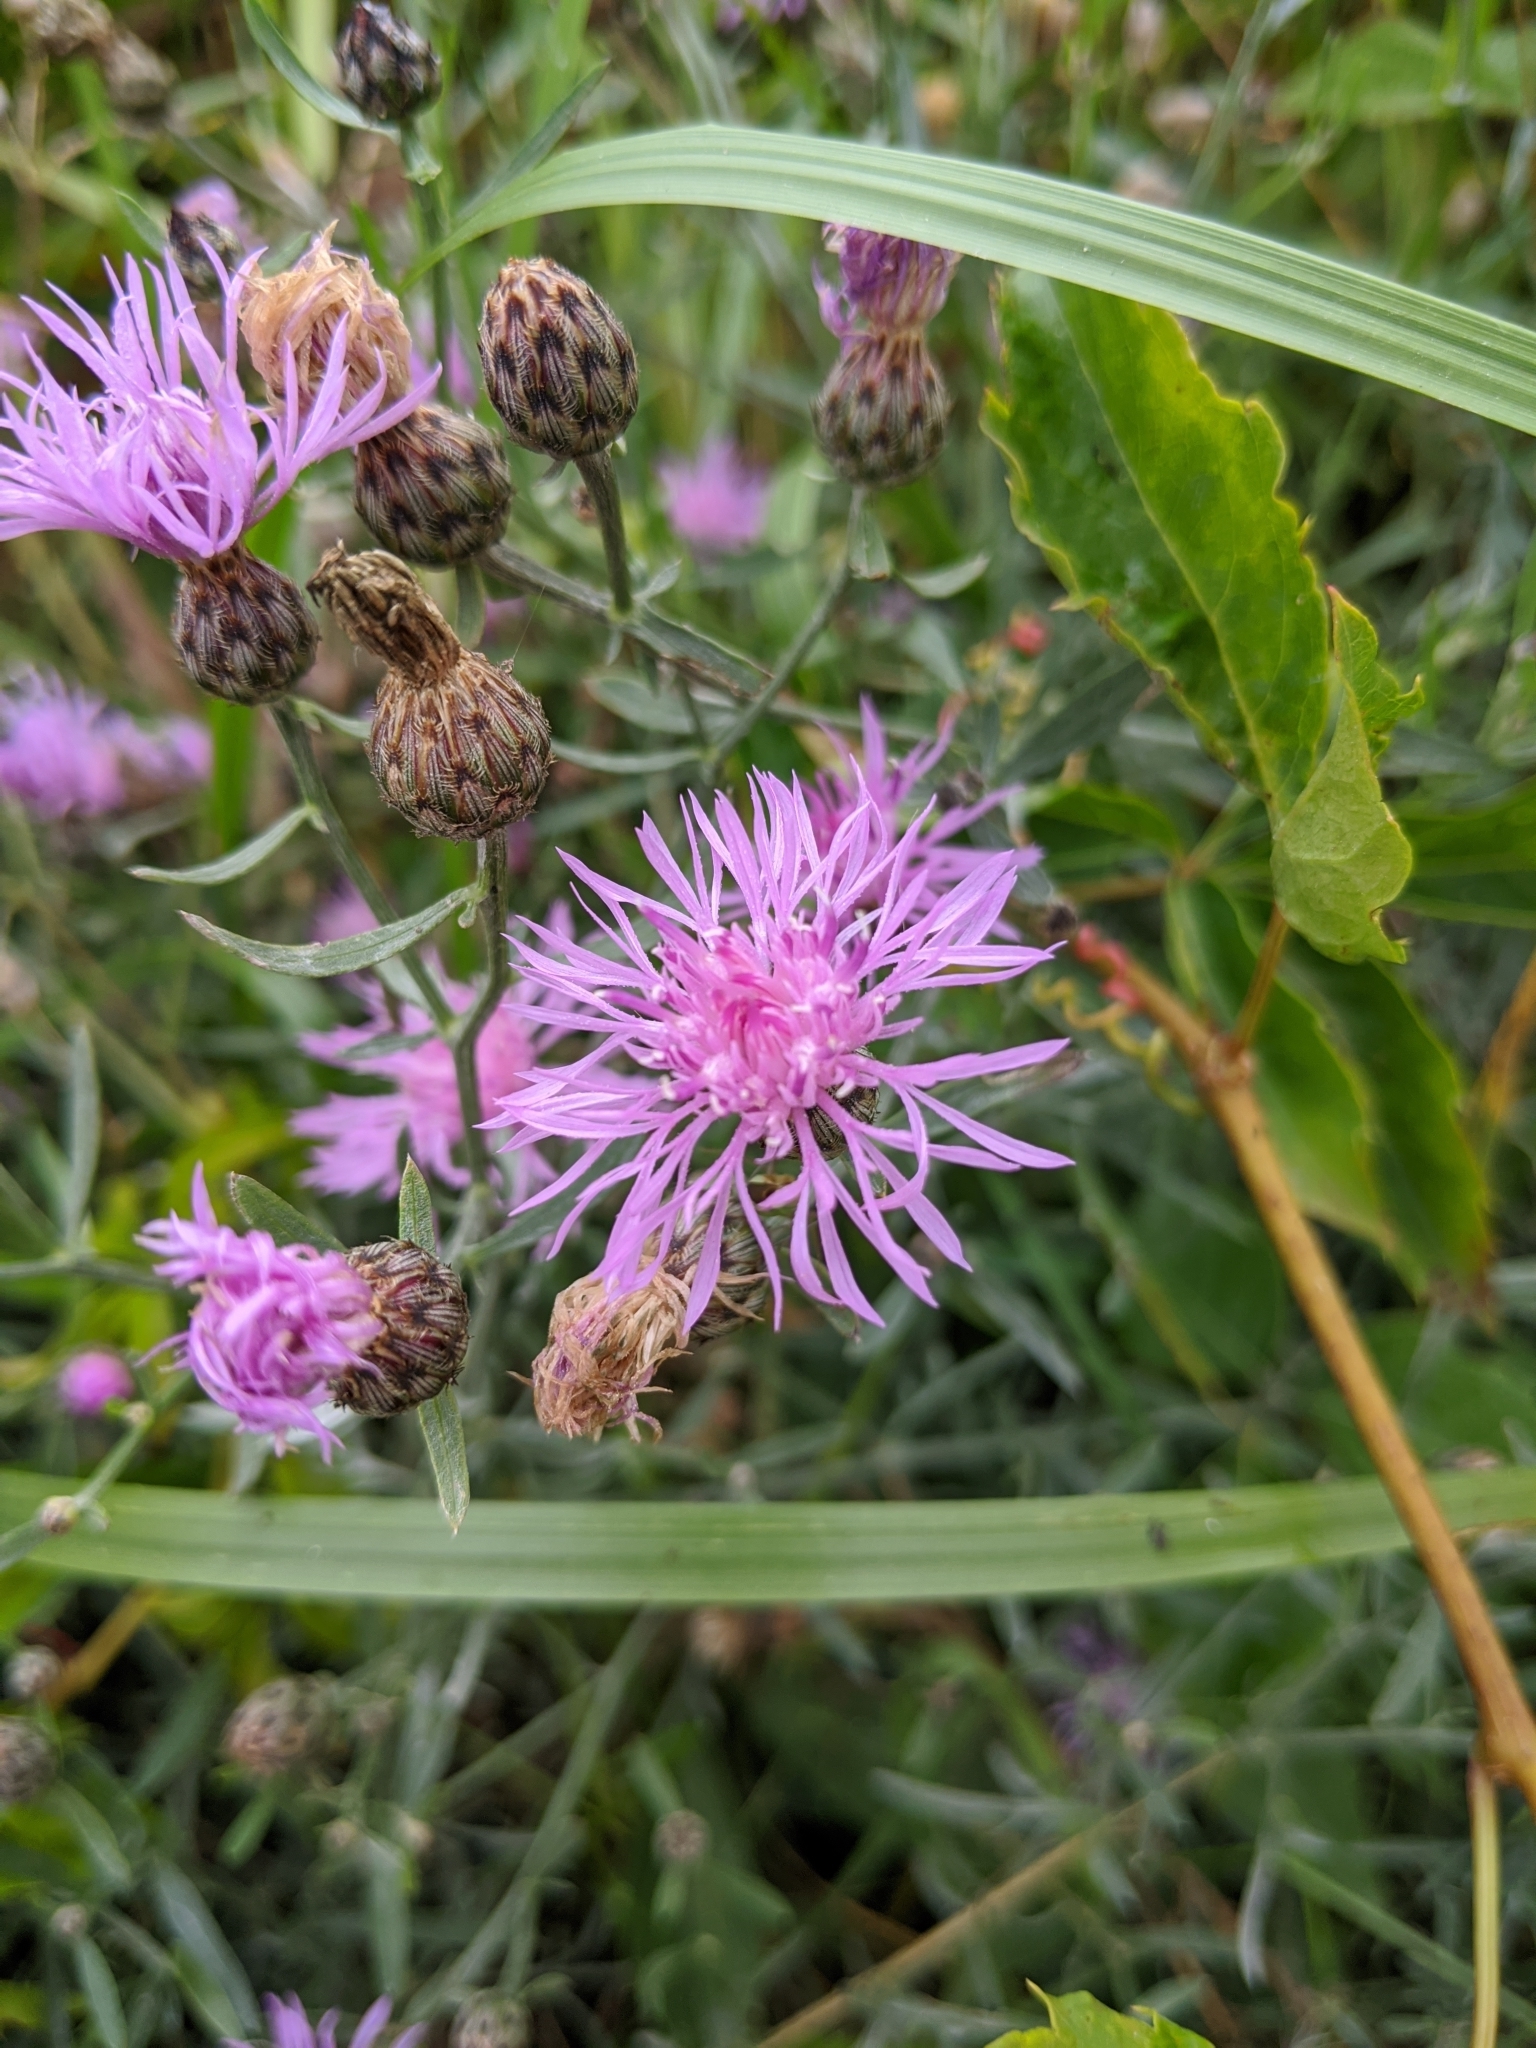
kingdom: Plantae
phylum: Tracheophyta
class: Magnoliopsida
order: Asterales
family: Asteraceae
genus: Centaurea
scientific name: Centaurea stoebe
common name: Spotted knapweed
